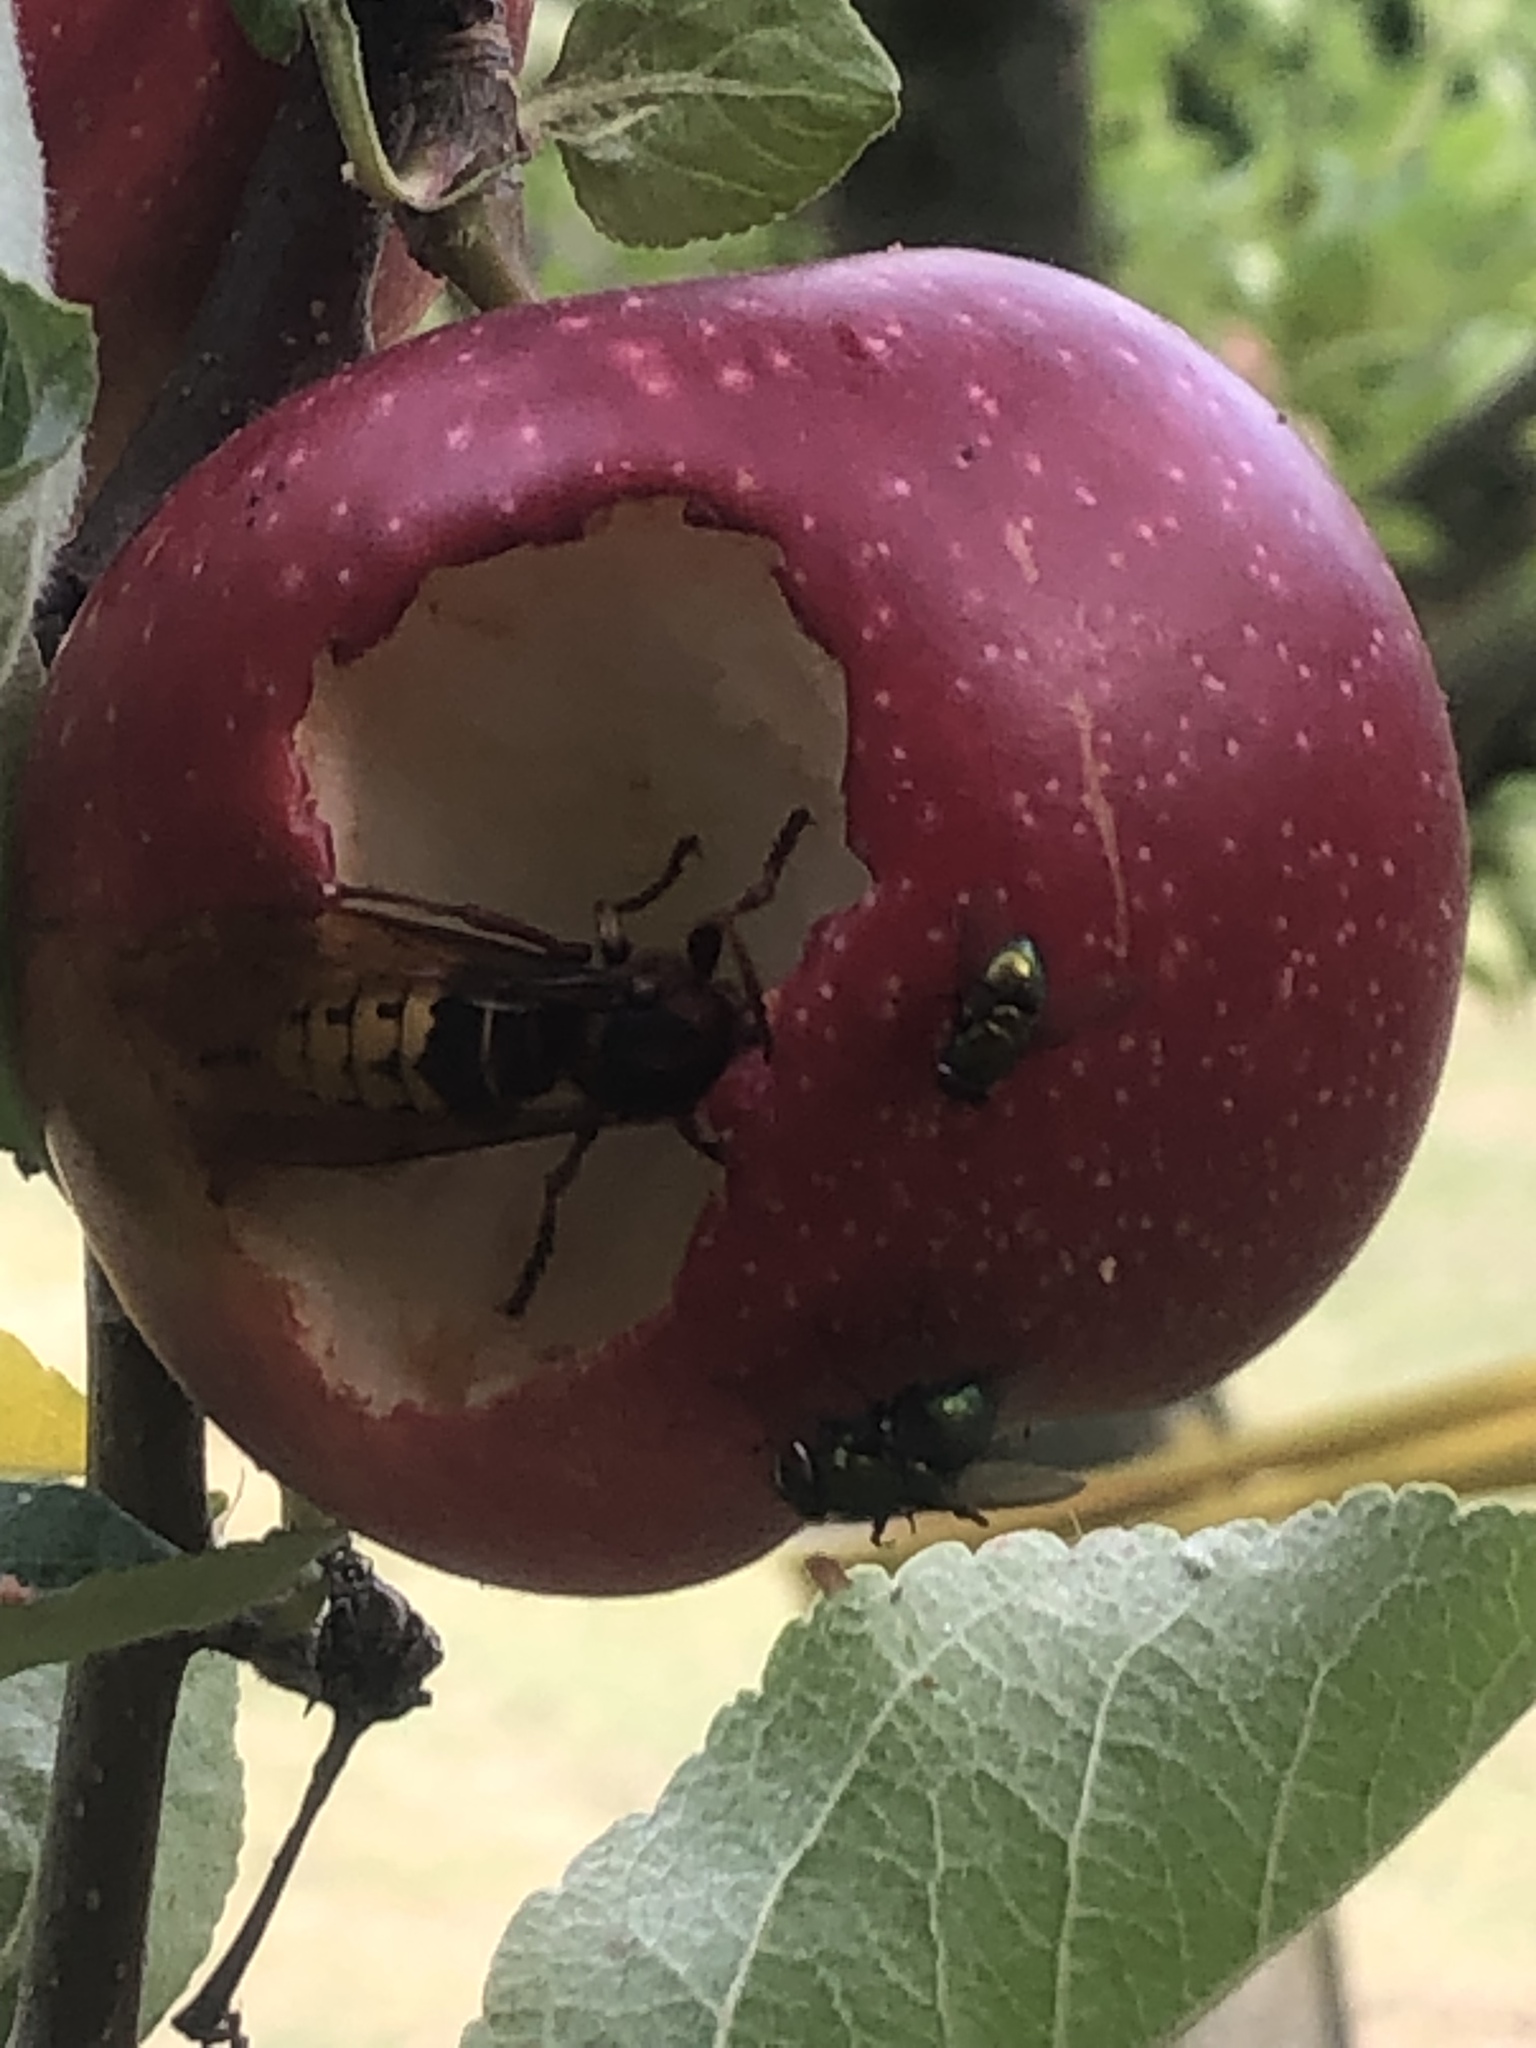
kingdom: Animalia
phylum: Arthropoda
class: Insecta
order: Hymenoptera
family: Vespidae
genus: Vespa
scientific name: Vespa crabro
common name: Hornet
